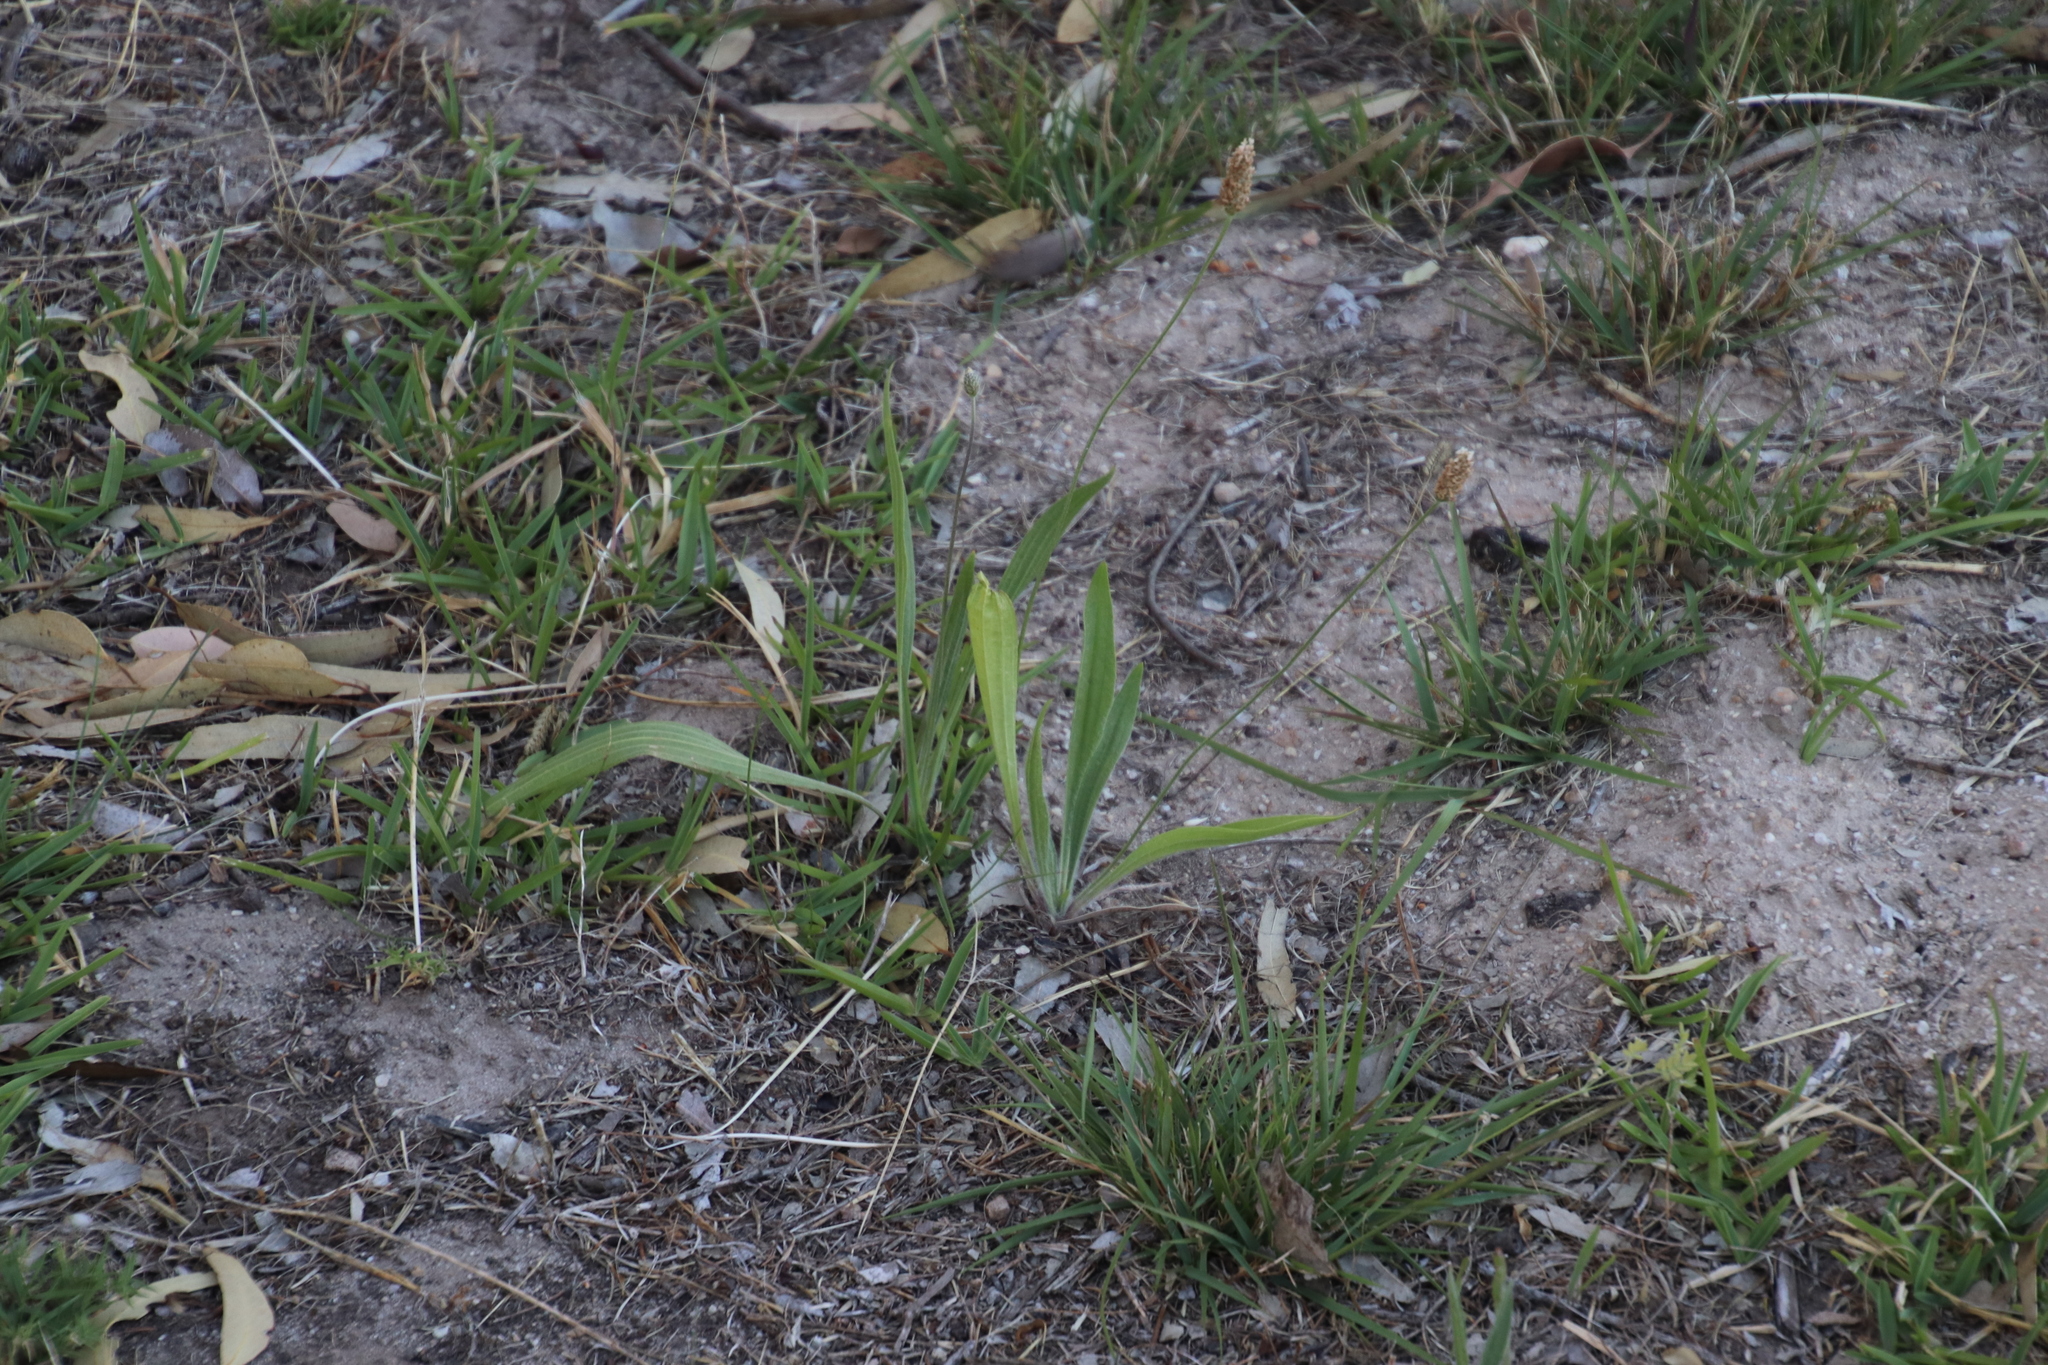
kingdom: Plantae
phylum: Tracheophyta
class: Magnoliopsida
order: Lamiales
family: Plantaginaceae
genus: Plantago
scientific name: Plantago lanceolata
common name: Ribwort plantain
